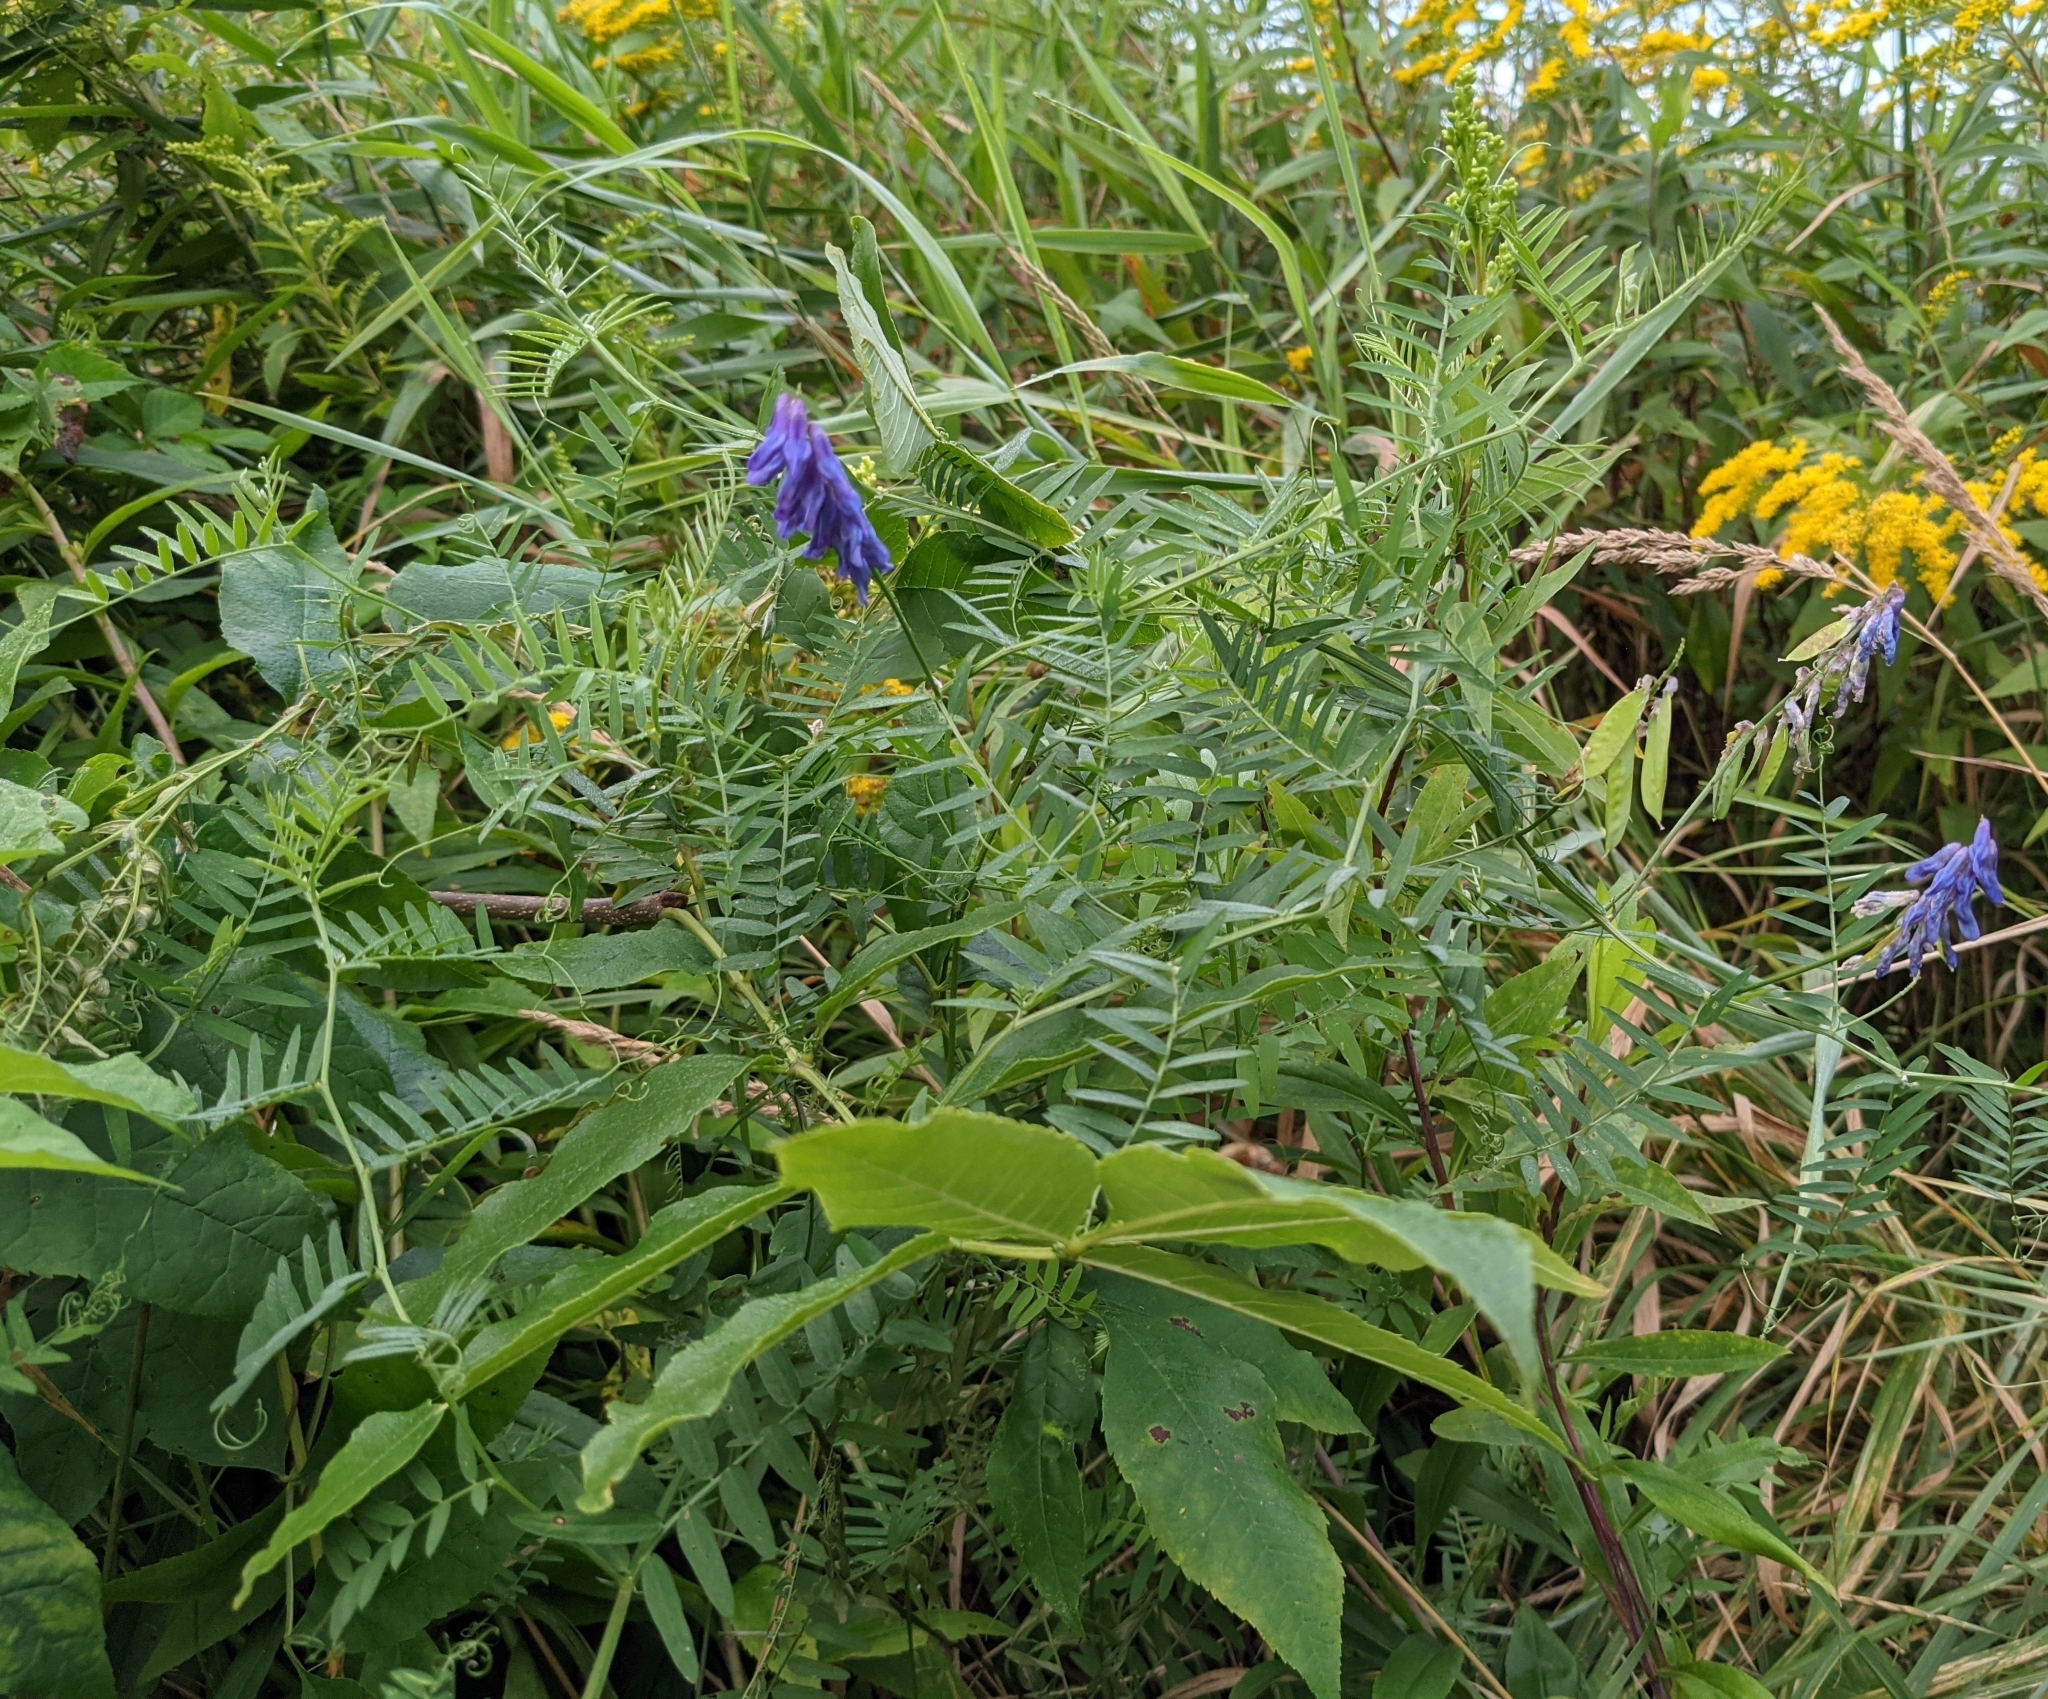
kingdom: Plantae
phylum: Tracheophyta
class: Magnoliopsida
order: Fabales
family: Fabaceae
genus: Vicia
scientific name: Vicia cracca
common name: Bird vetch
